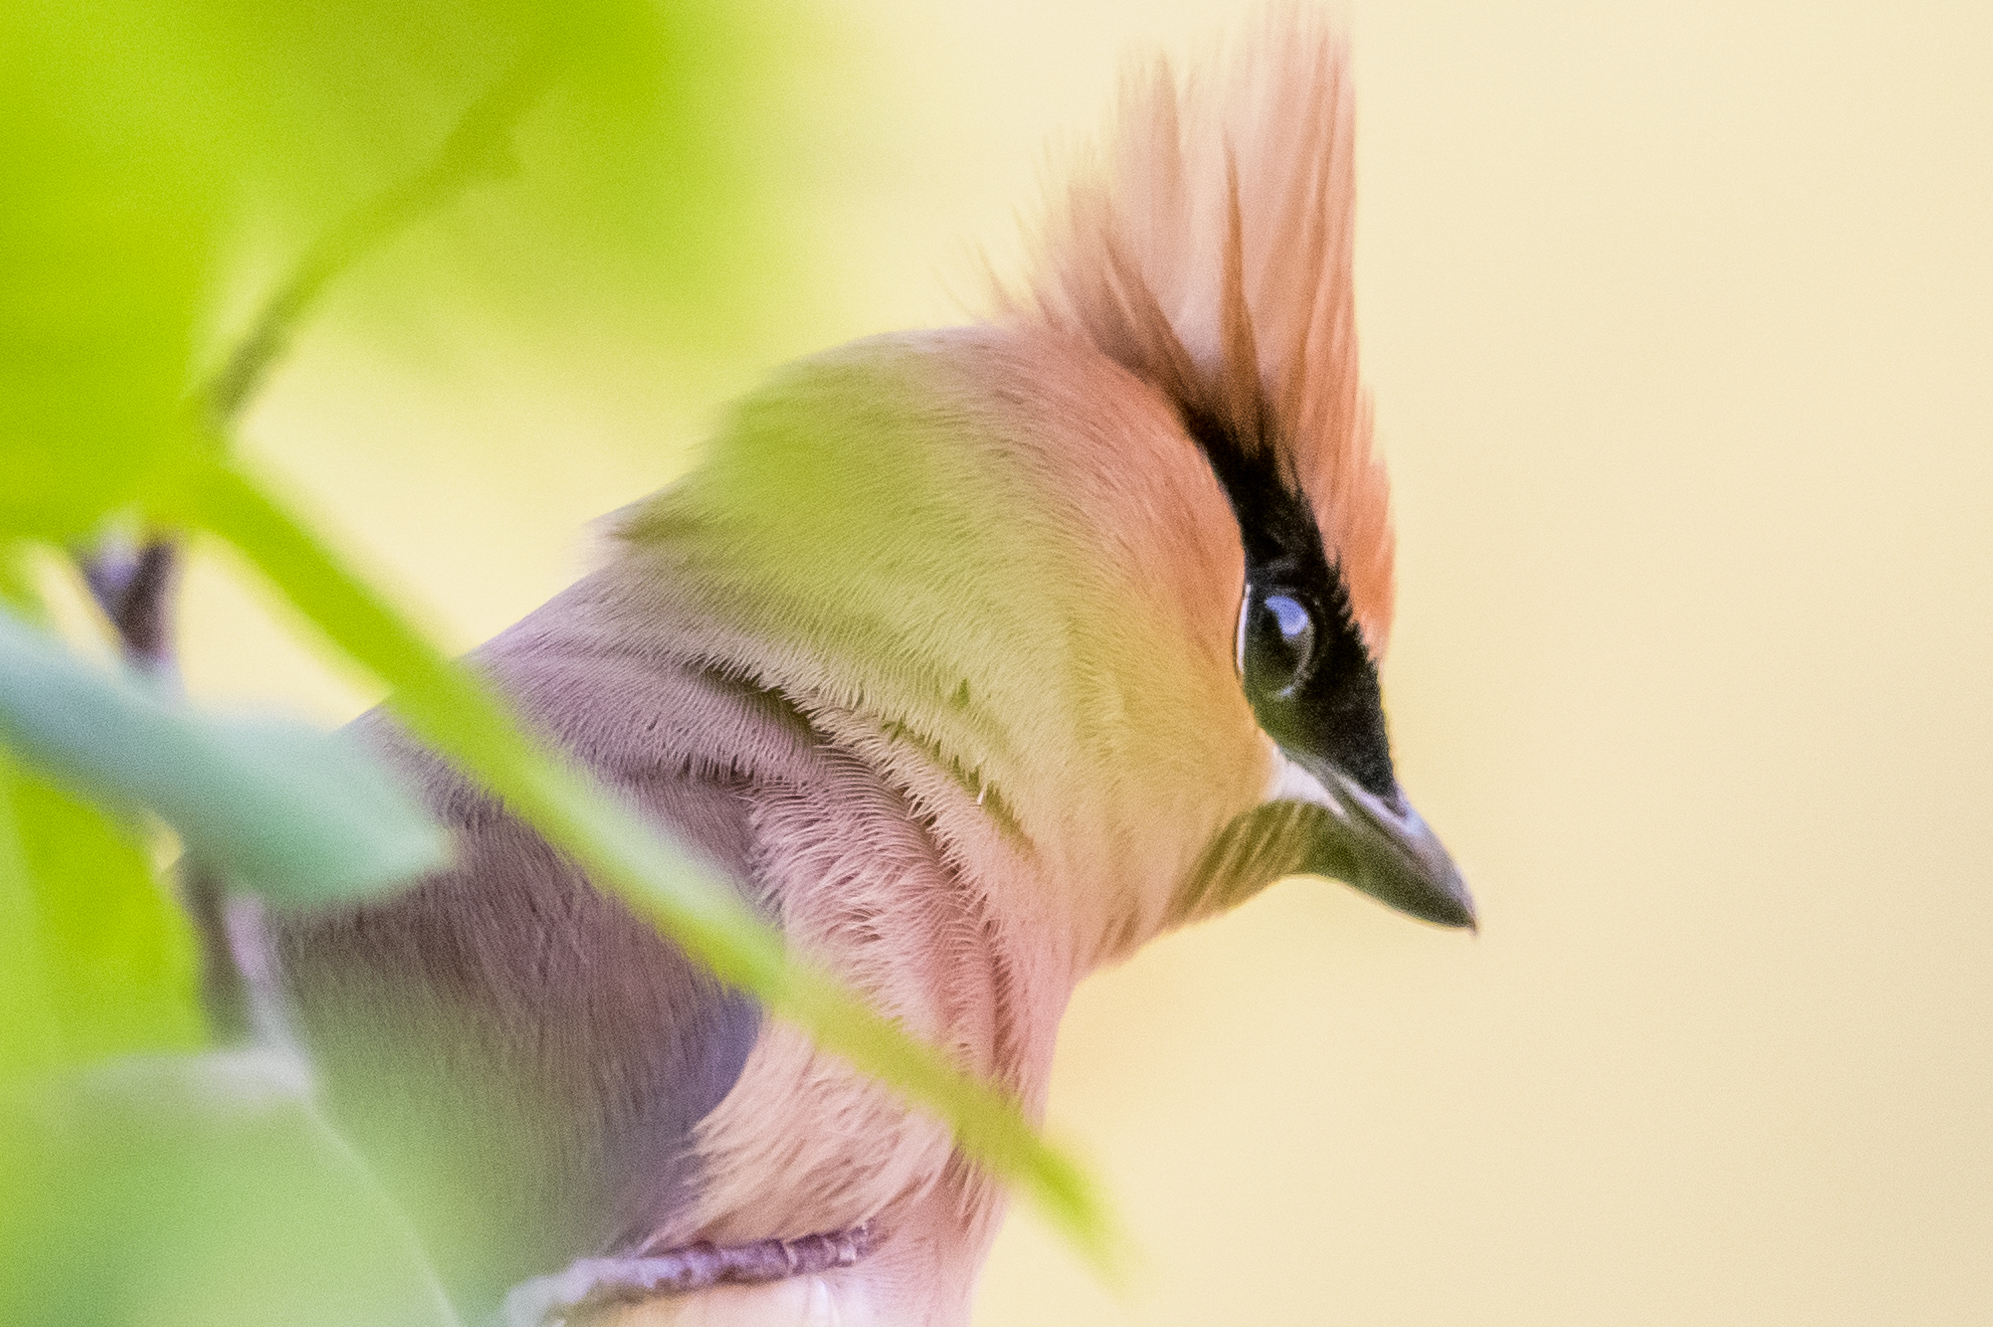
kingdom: Animalia
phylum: Chordata
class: Aves
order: Passeriformes
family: Bombycillidae
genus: Bombycilla
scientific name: Bombycilla cedrorum
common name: Cedar waxwing
